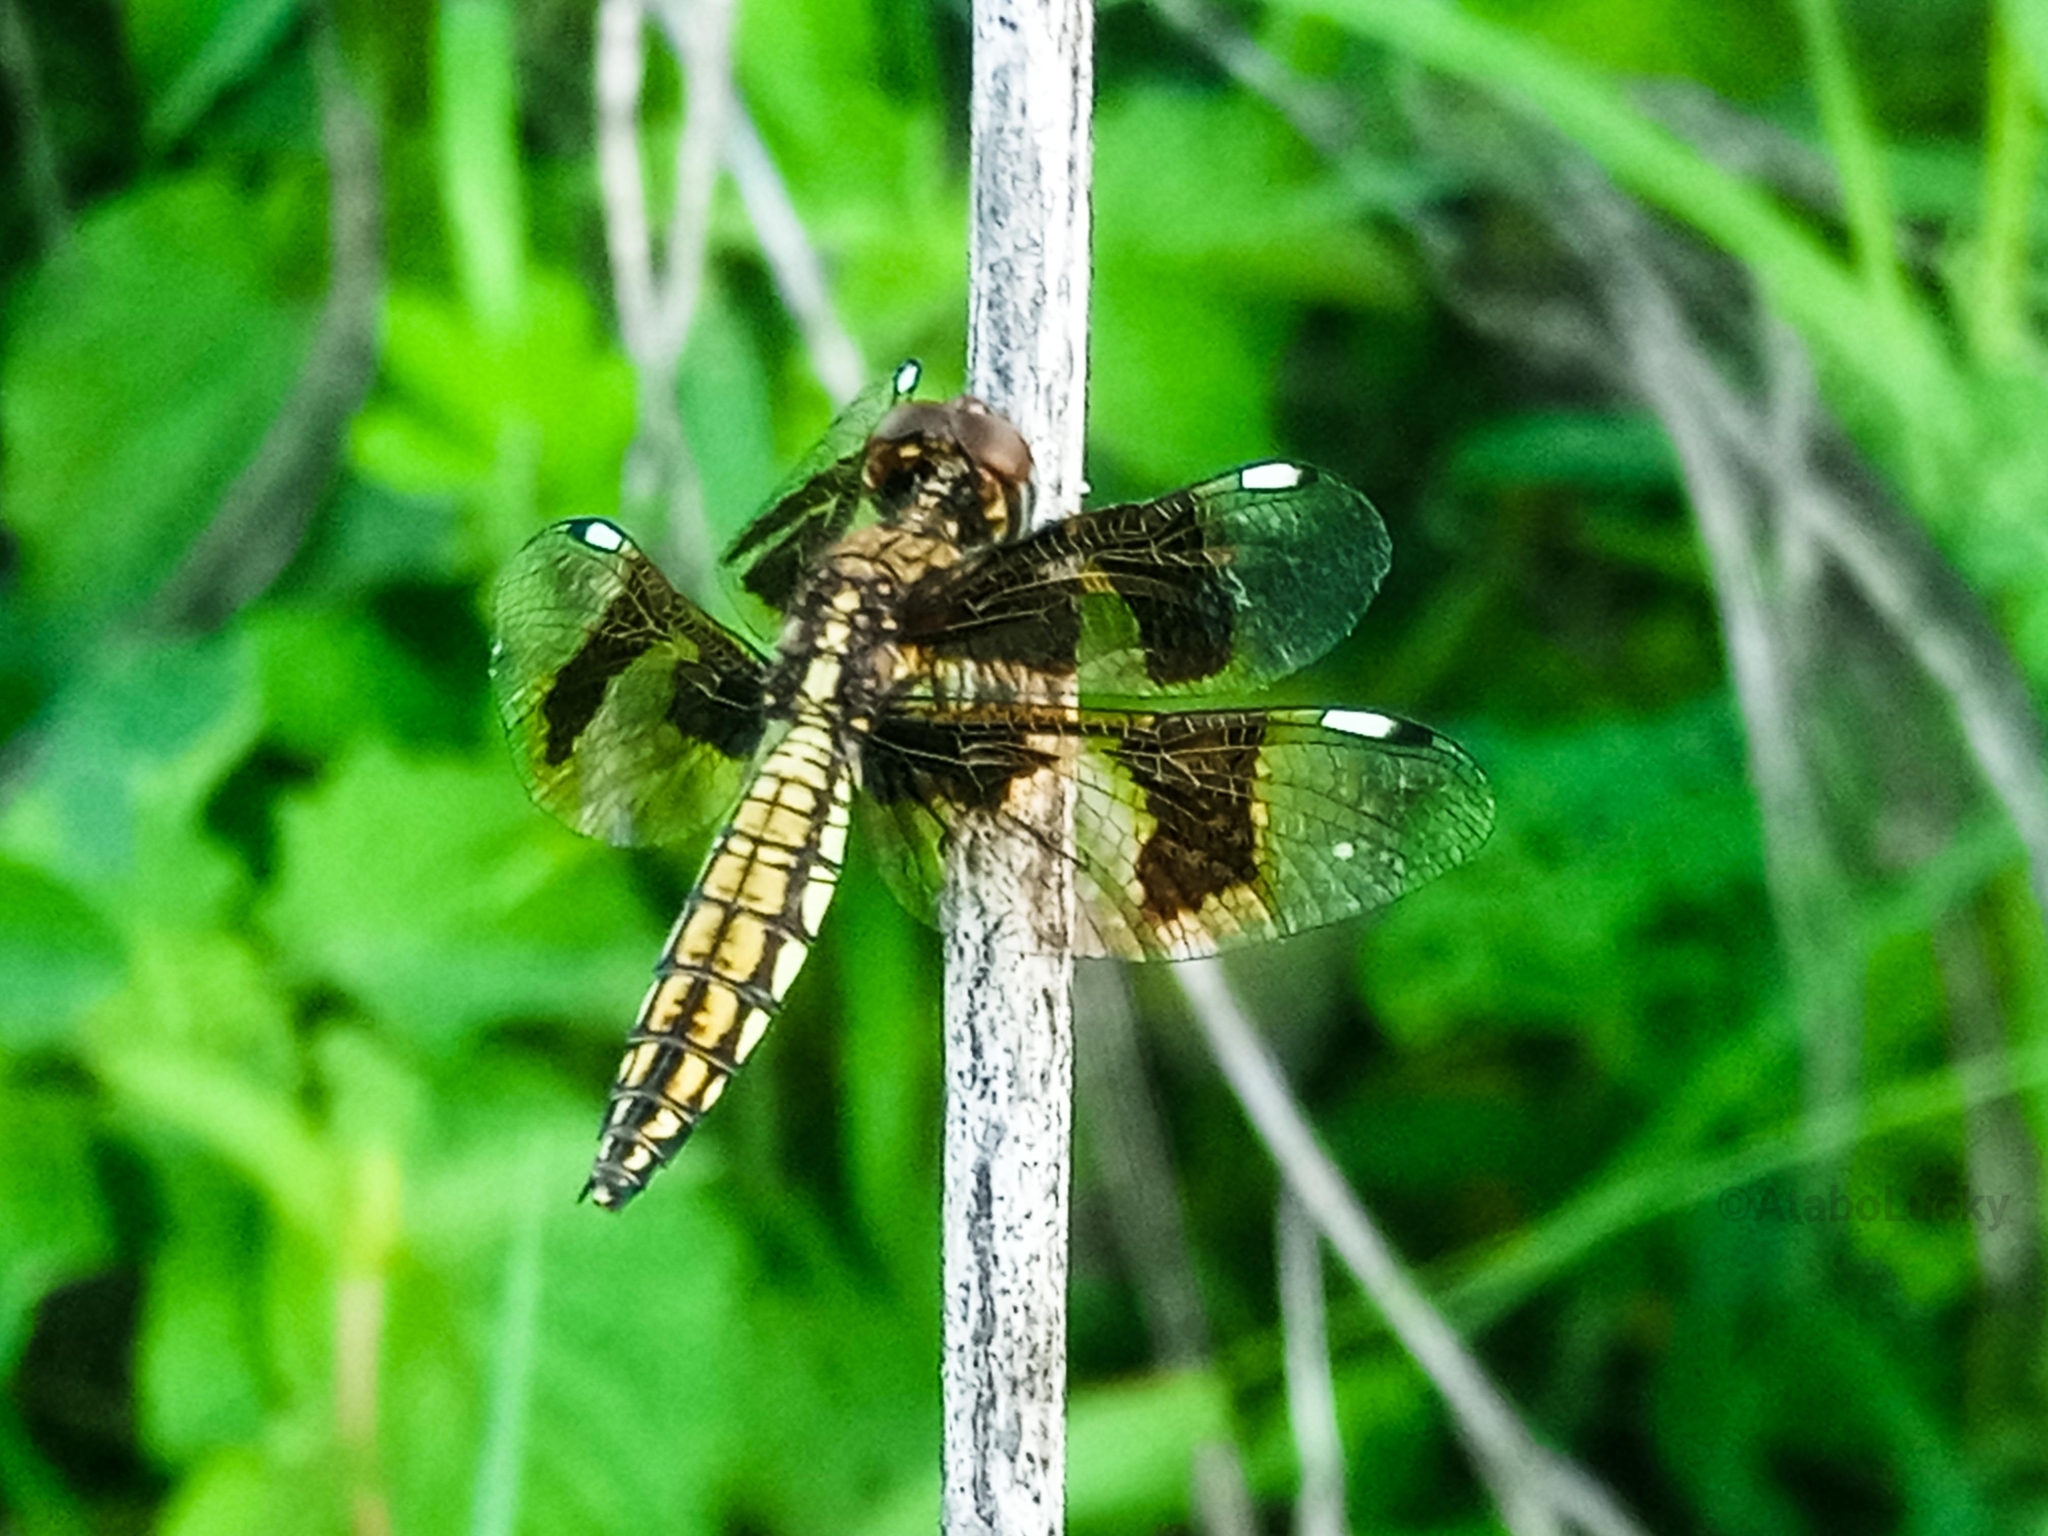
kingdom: Animalia
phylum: Arthropoda
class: Insecta
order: Odonata
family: Libellulidae
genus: Palpopleura
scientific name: Palpopleura lucia
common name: Lucia widow
